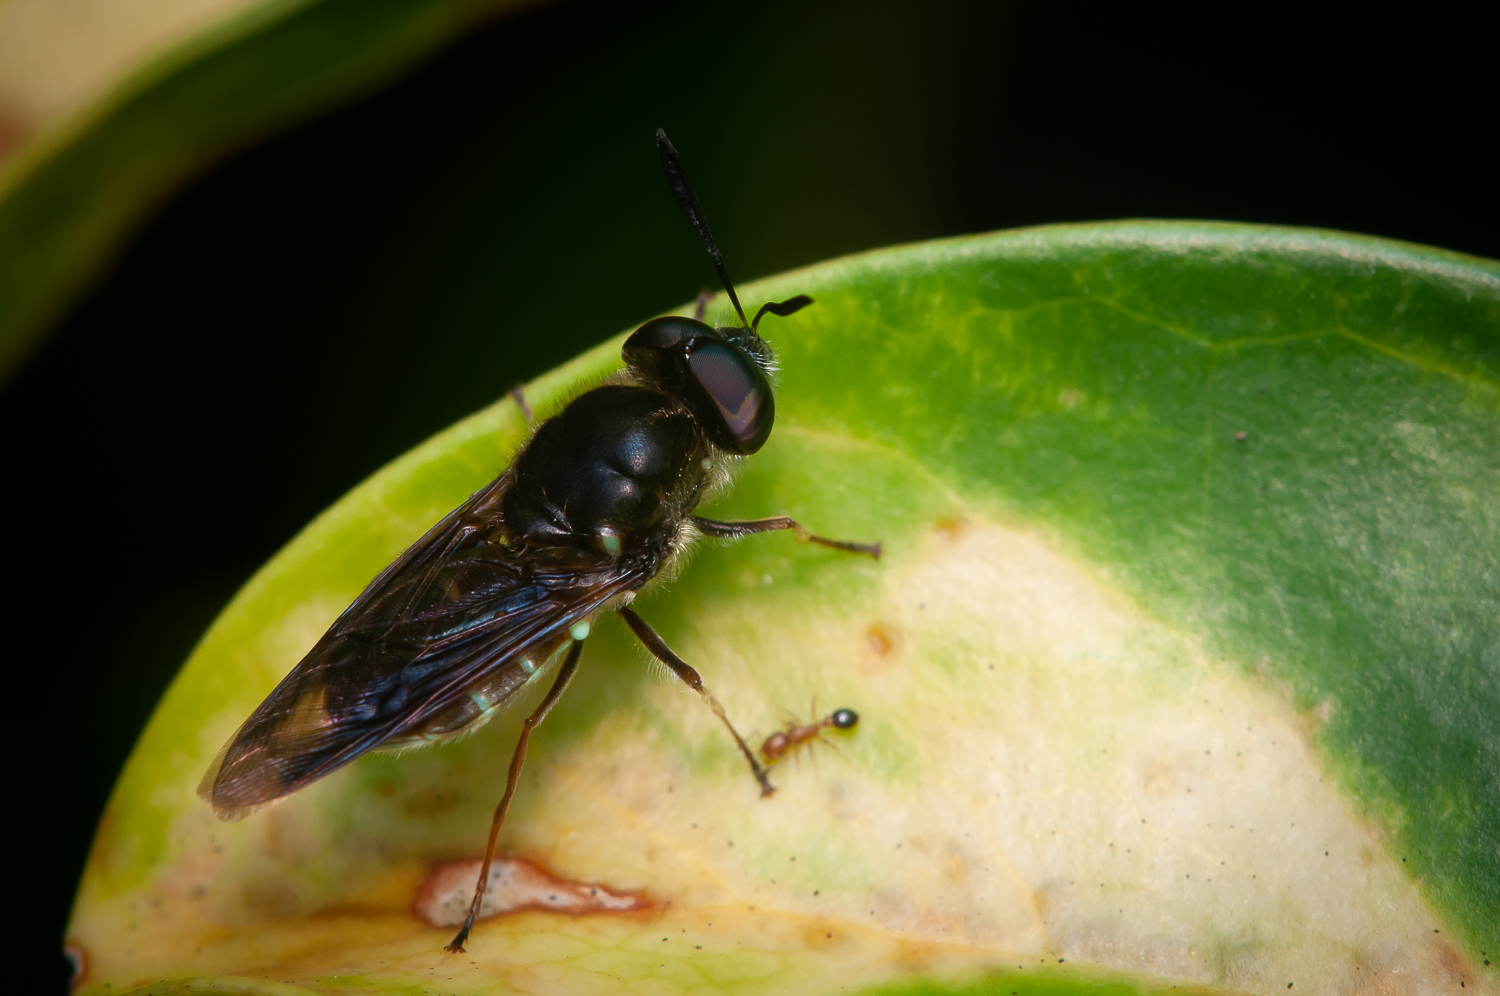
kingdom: Animalia
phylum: Arthropoda
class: Insecta
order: Diptera
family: Stratiomyidae
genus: Hoplitimyia
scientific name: Hoplitimyia subalba
